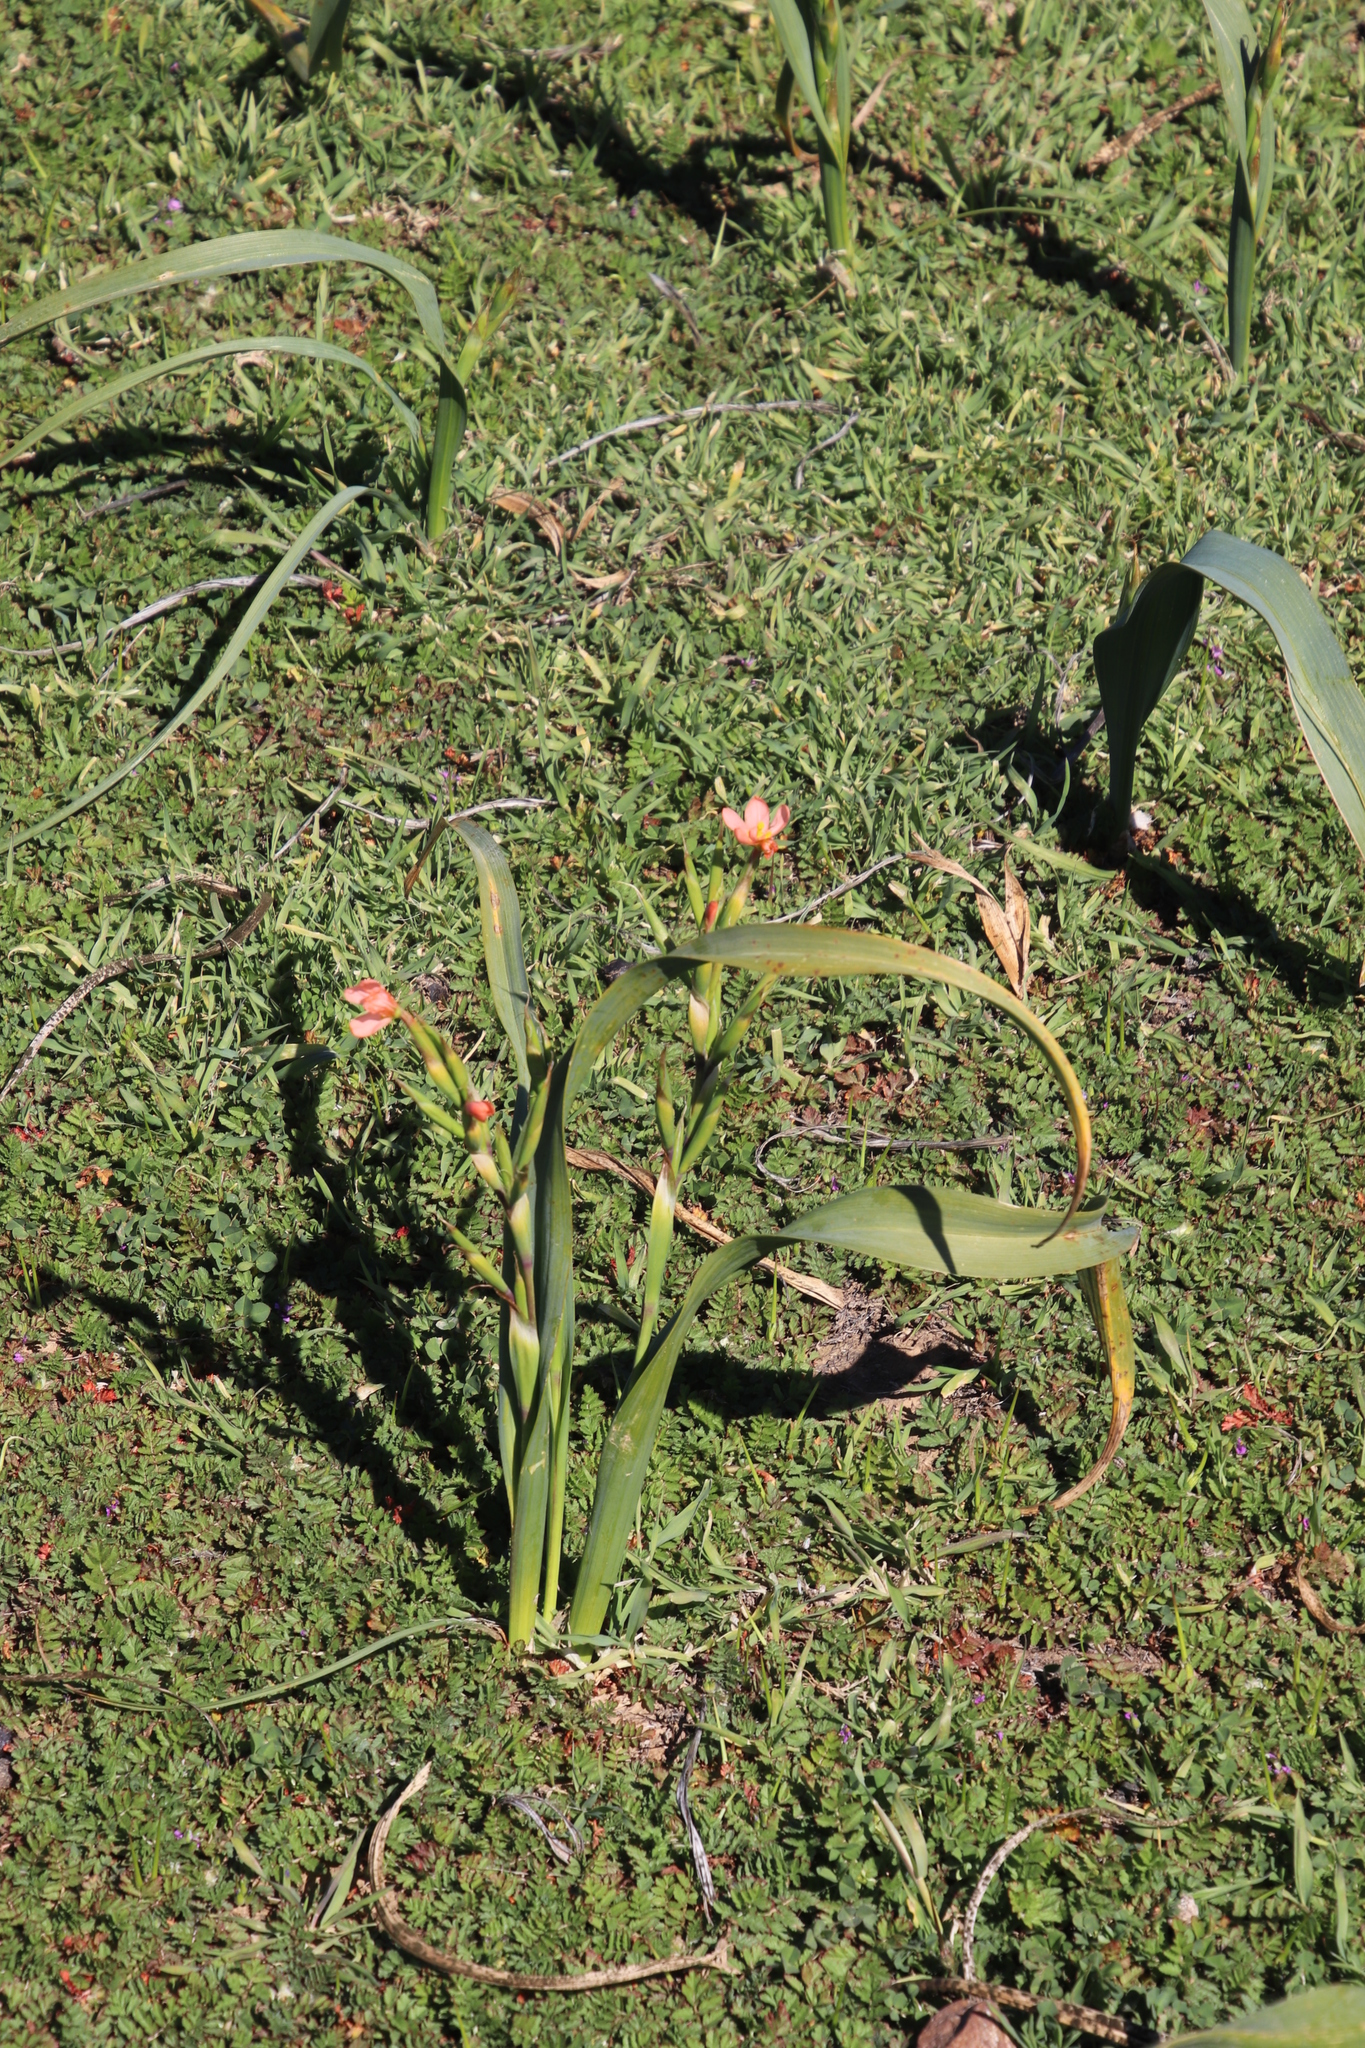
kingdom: Plantae
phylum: Tracheophyta
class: Liliopsida
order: Asparagales
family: Iridaceae
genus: Moraea
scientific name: Moraea miniata
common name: Two-leaf cape-tulip
